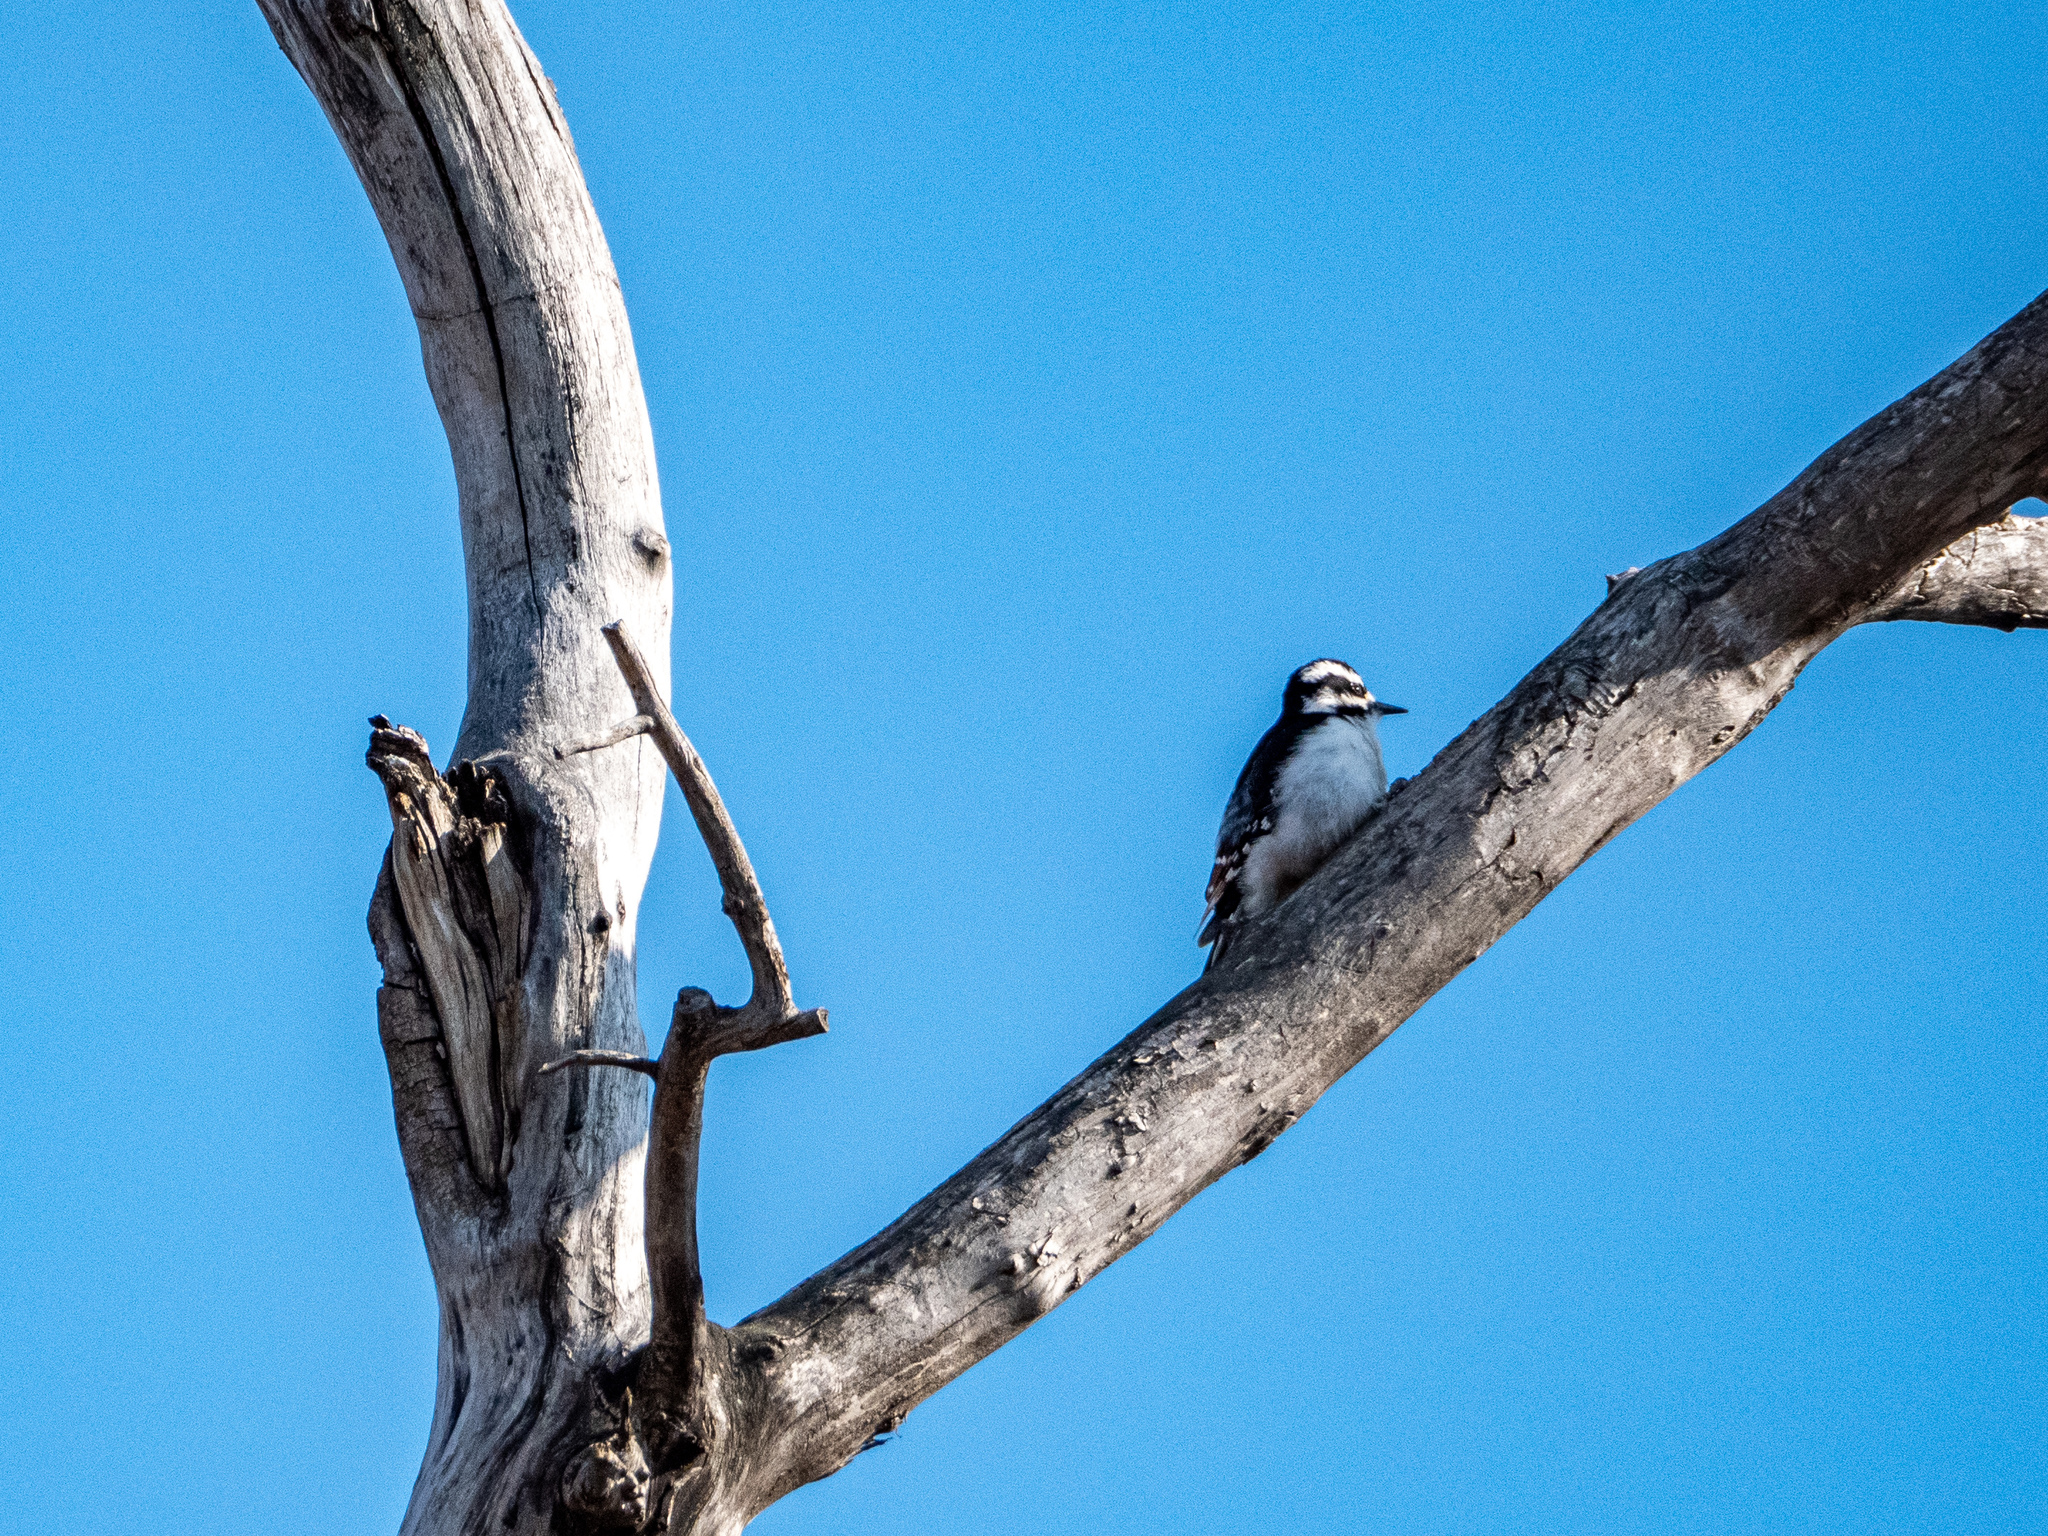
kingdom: Animalia
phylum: Chordata
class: Aves
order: Piciformes
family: Picidae
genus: Dryobates
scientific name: Dryobates pubescens
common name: Downy woodpecker
